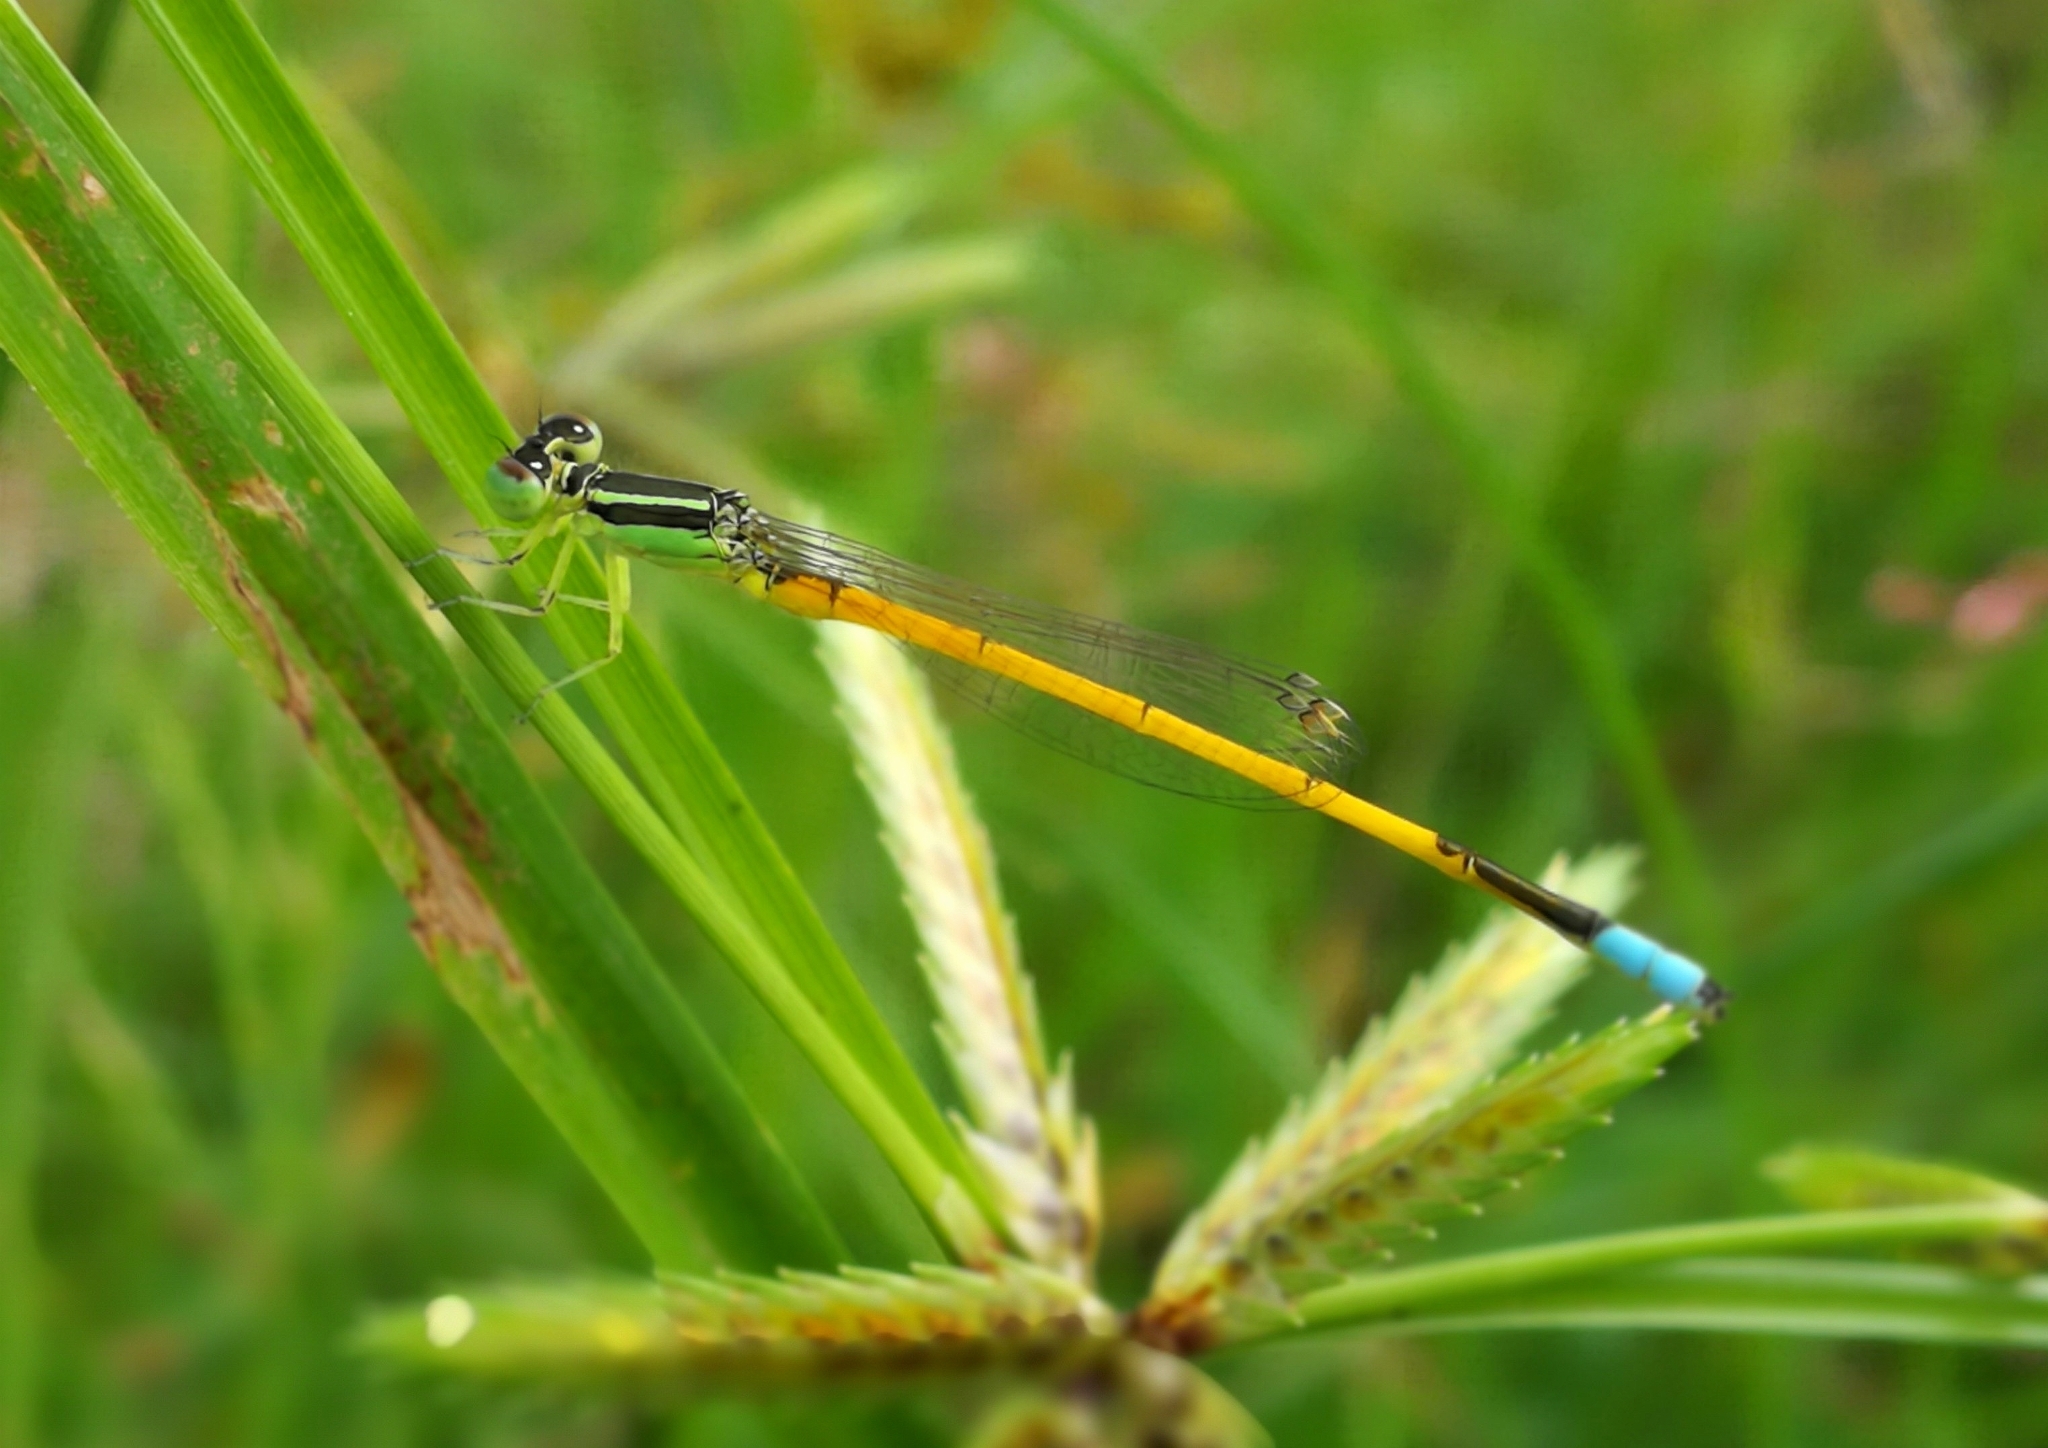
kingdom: Animalia
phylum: Arthropoda
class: Insecta
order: Odonata
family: Coenagrionidae
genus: Ischnura
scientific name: Ischnura rubilio
